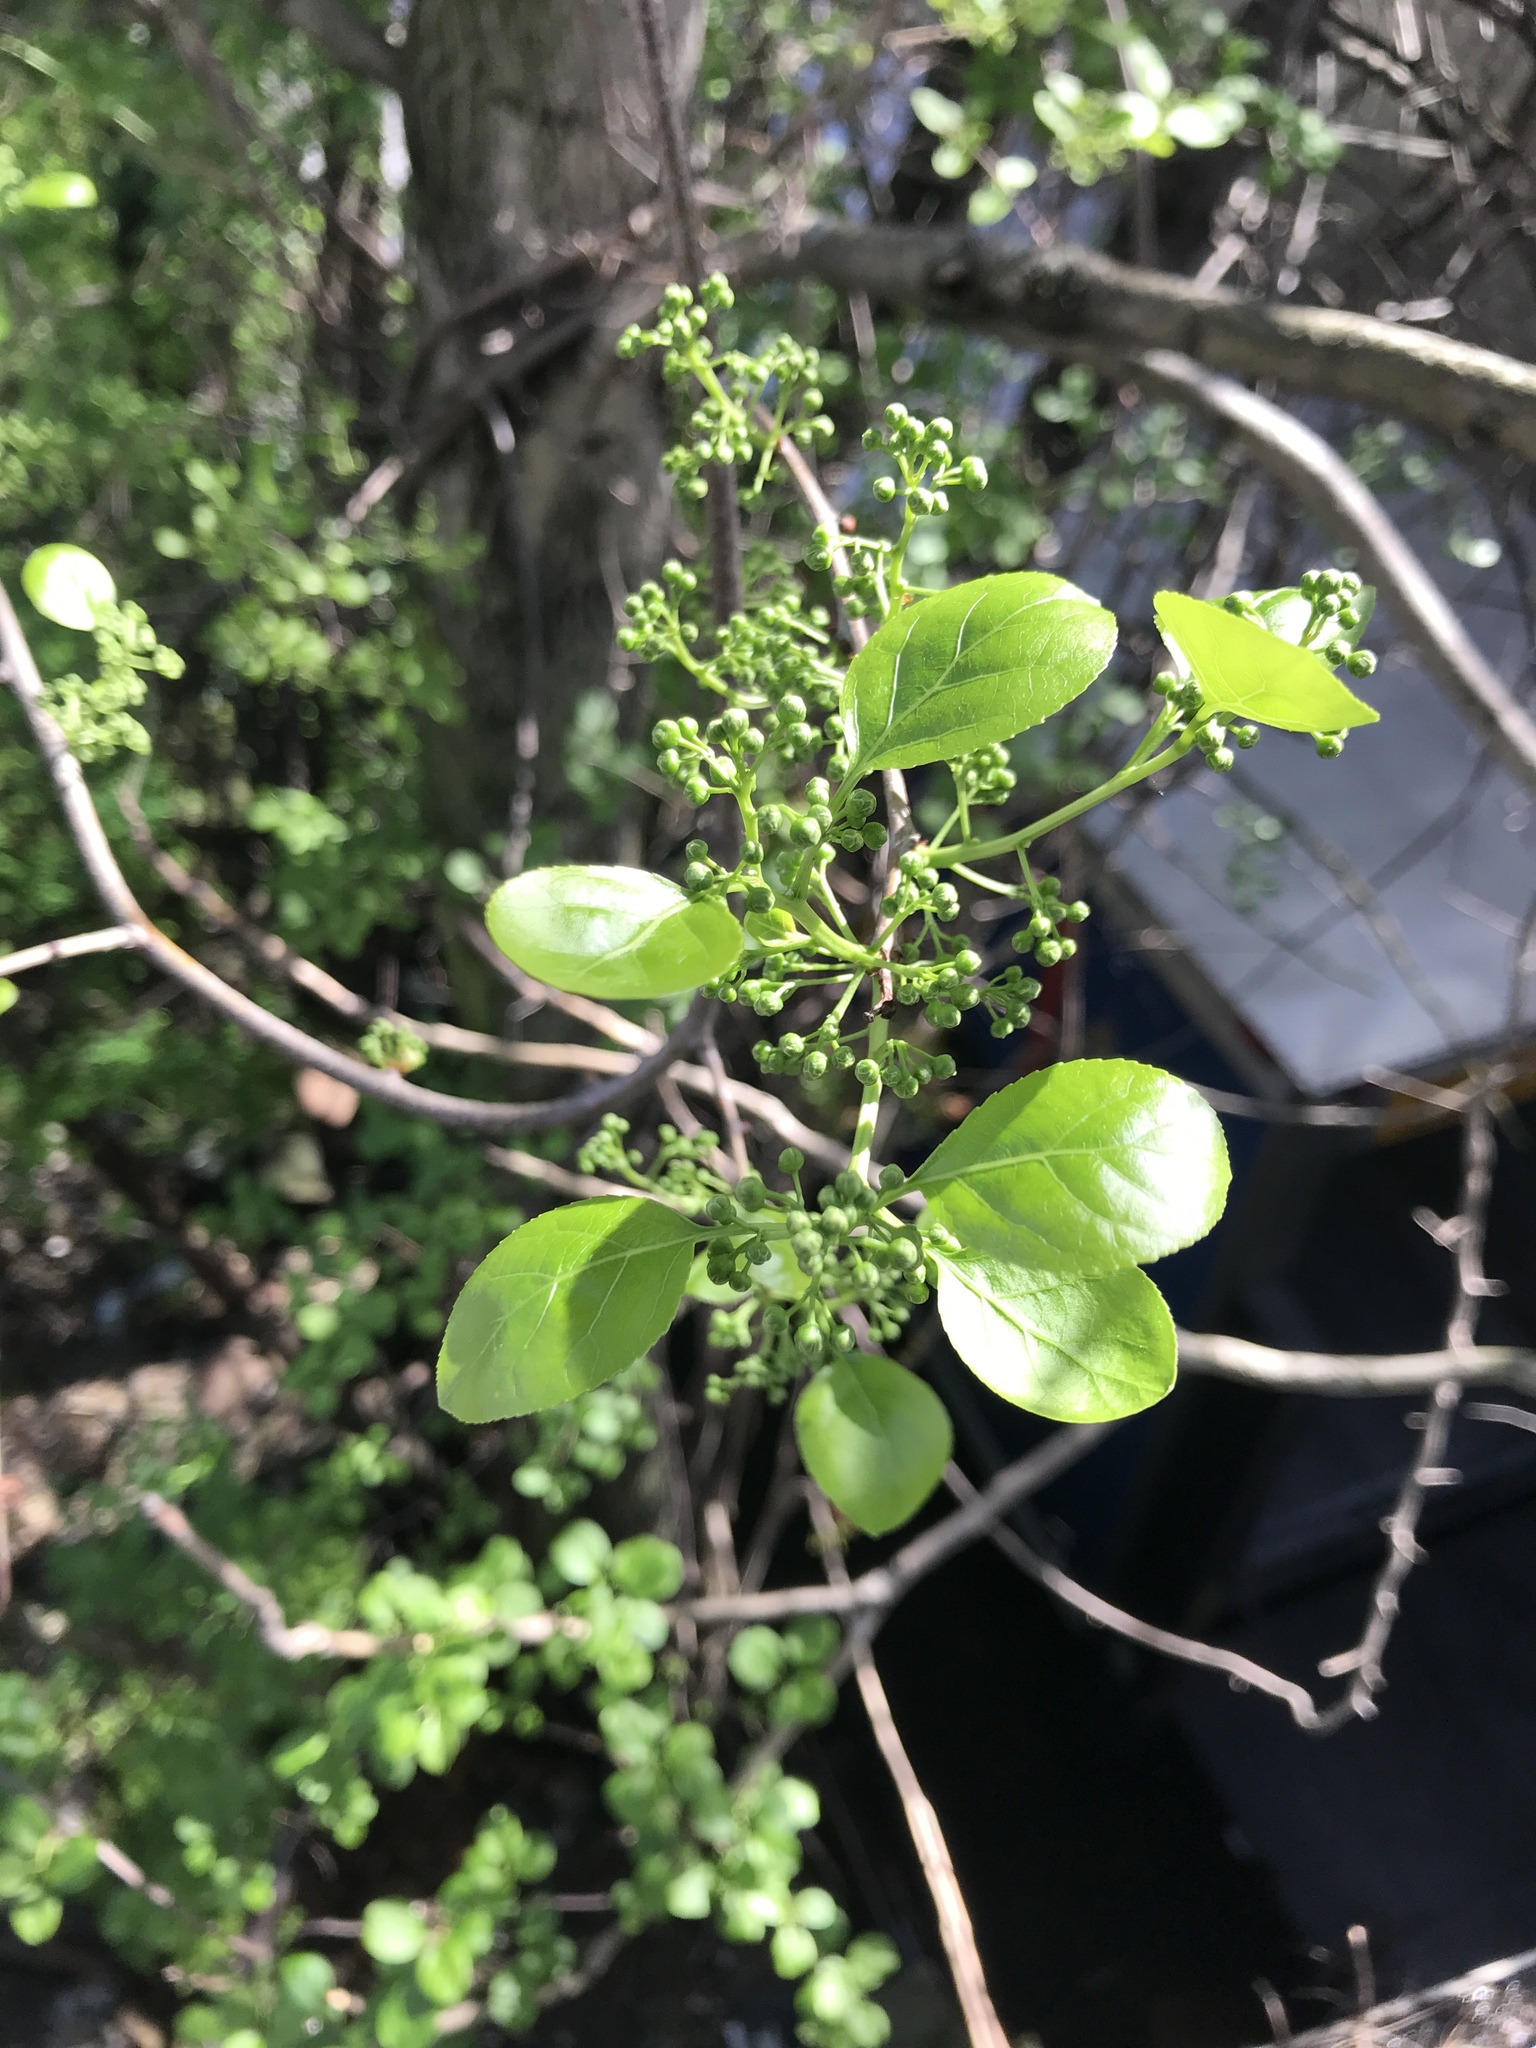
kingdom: Plantae
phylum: Tracheophyta
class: Magnoliopsida
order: Celastrales
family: Celastraceae
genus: Celastrus
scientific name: Celastrus orbiculatus
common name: Oriental bittersweet
